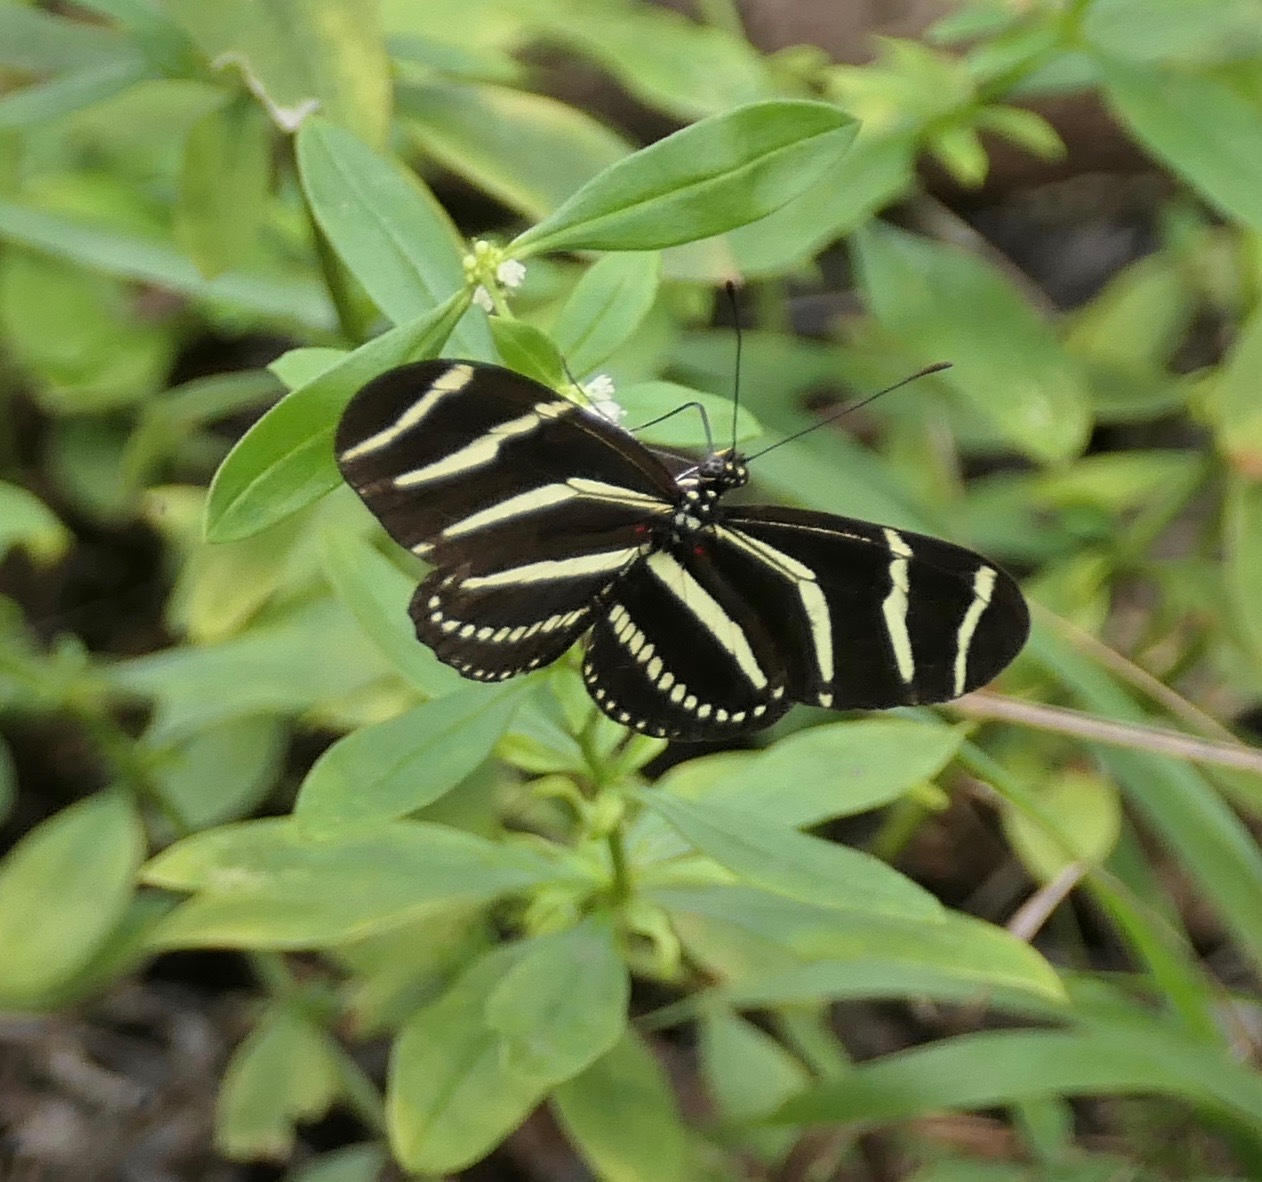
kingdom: Animalia
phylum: Arthropoda
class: Insecta
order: Lepidoptera
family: Nymphalidae
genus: Heliconius
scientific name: Heliconius charithonia
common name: Zebra long wing
